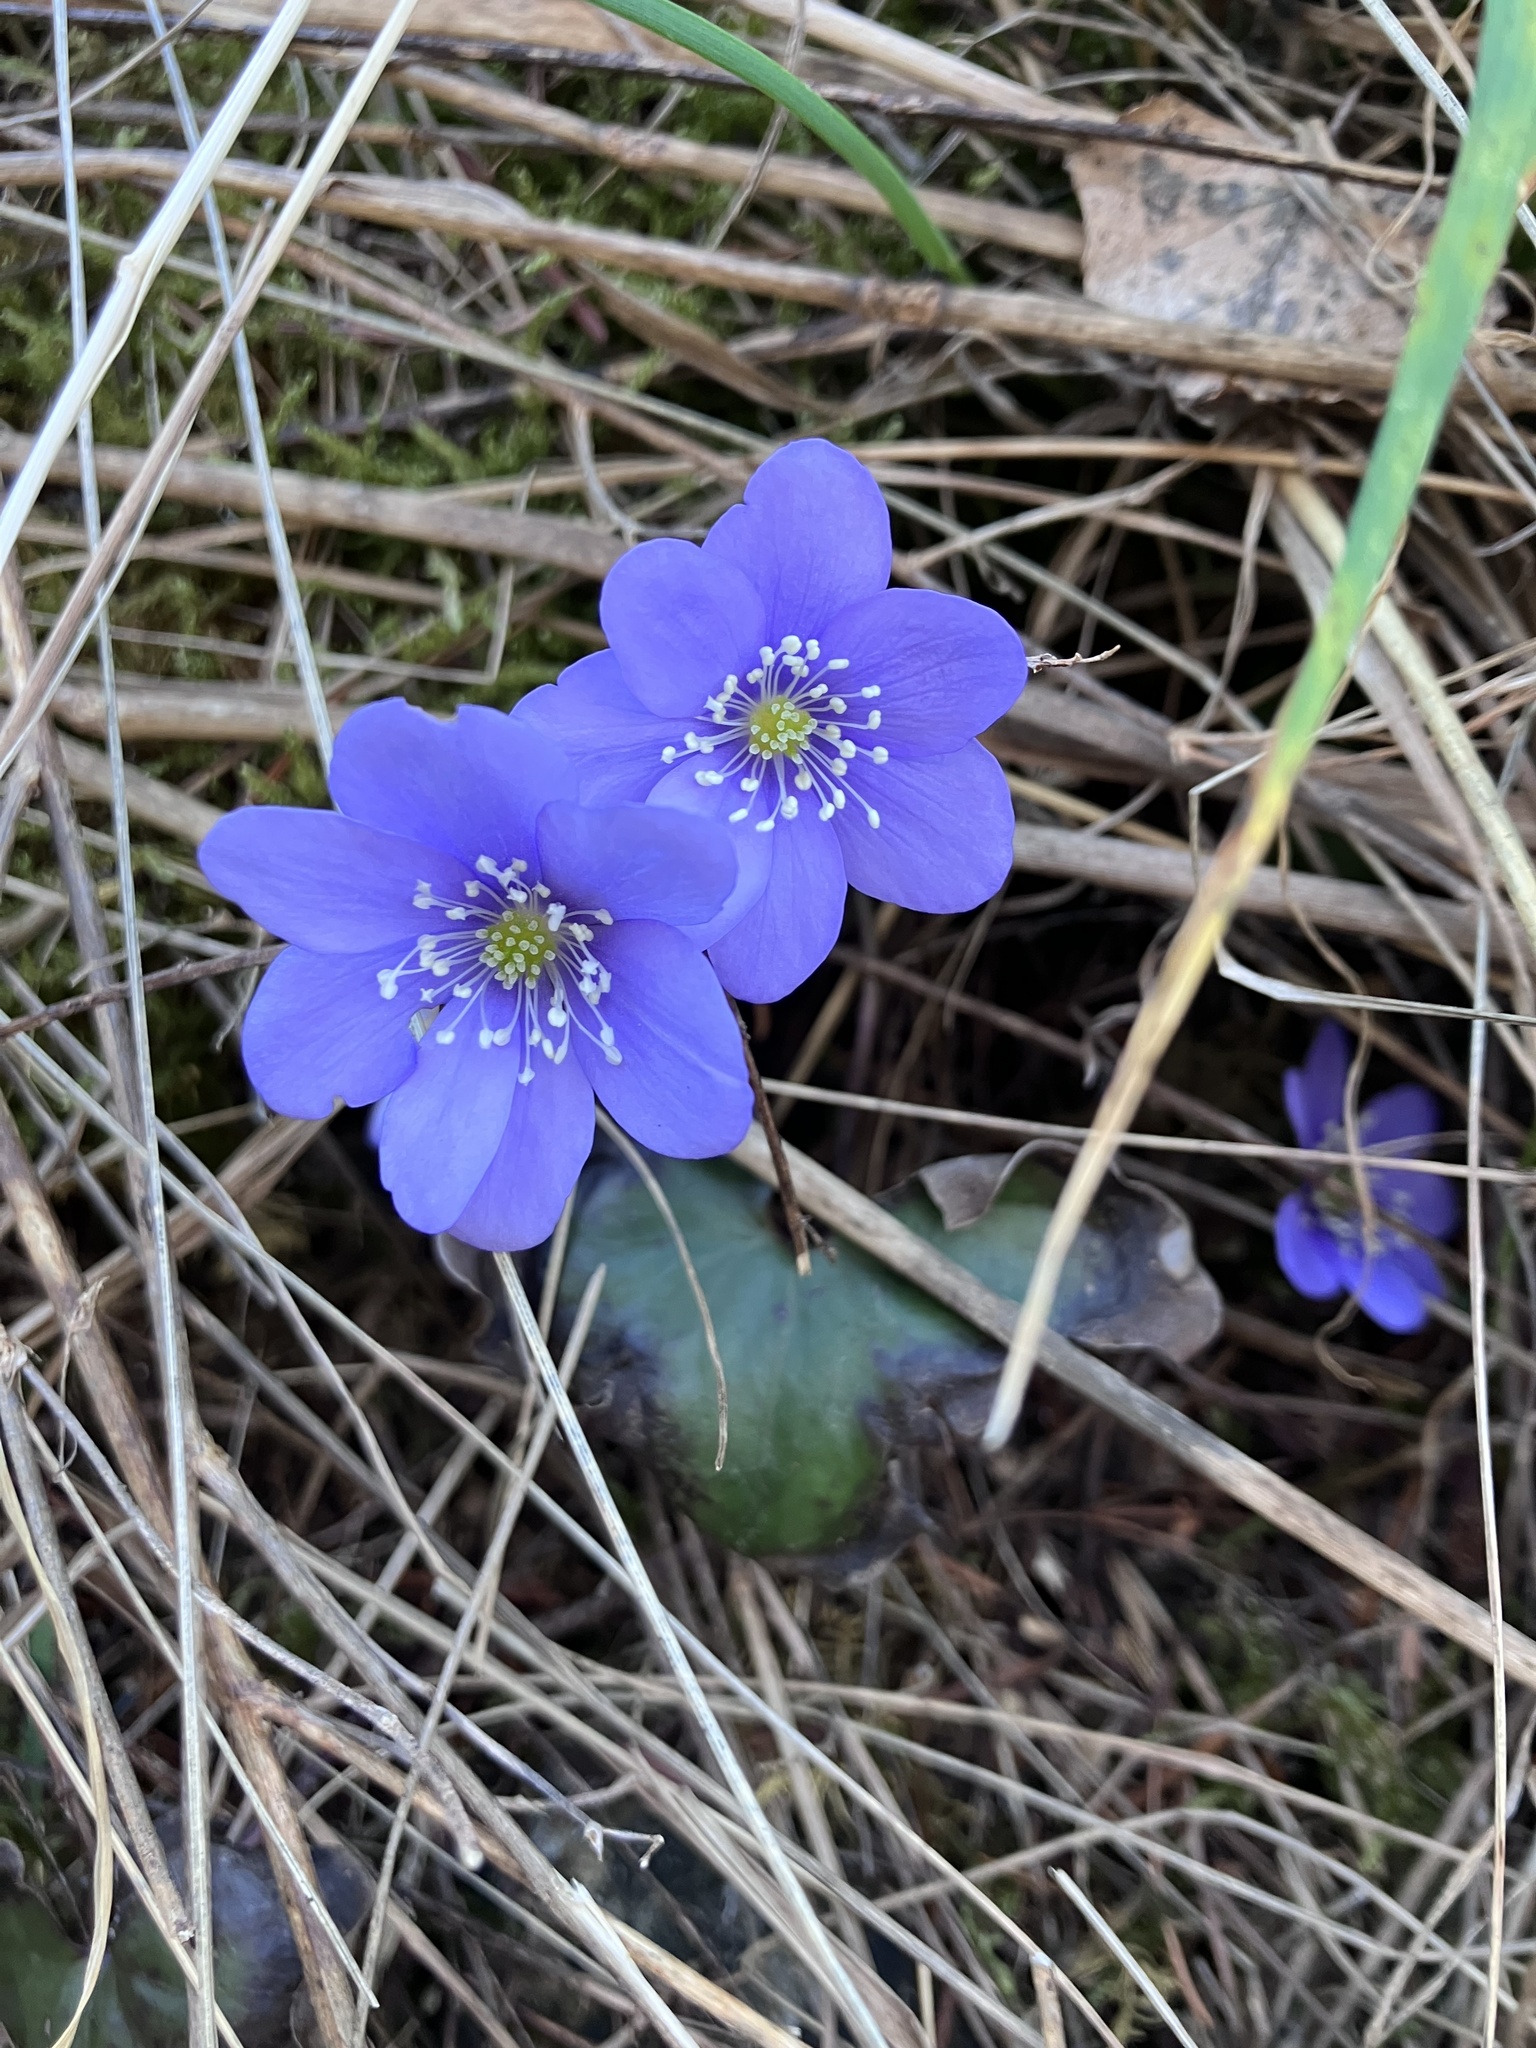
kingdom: Plantae
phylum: Tracheophyta
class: Magnoliopsida
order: Ranunculales
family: Ranunculaceae
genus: Hepatica
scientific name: Hepatica nobilis
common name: Liverleaf
